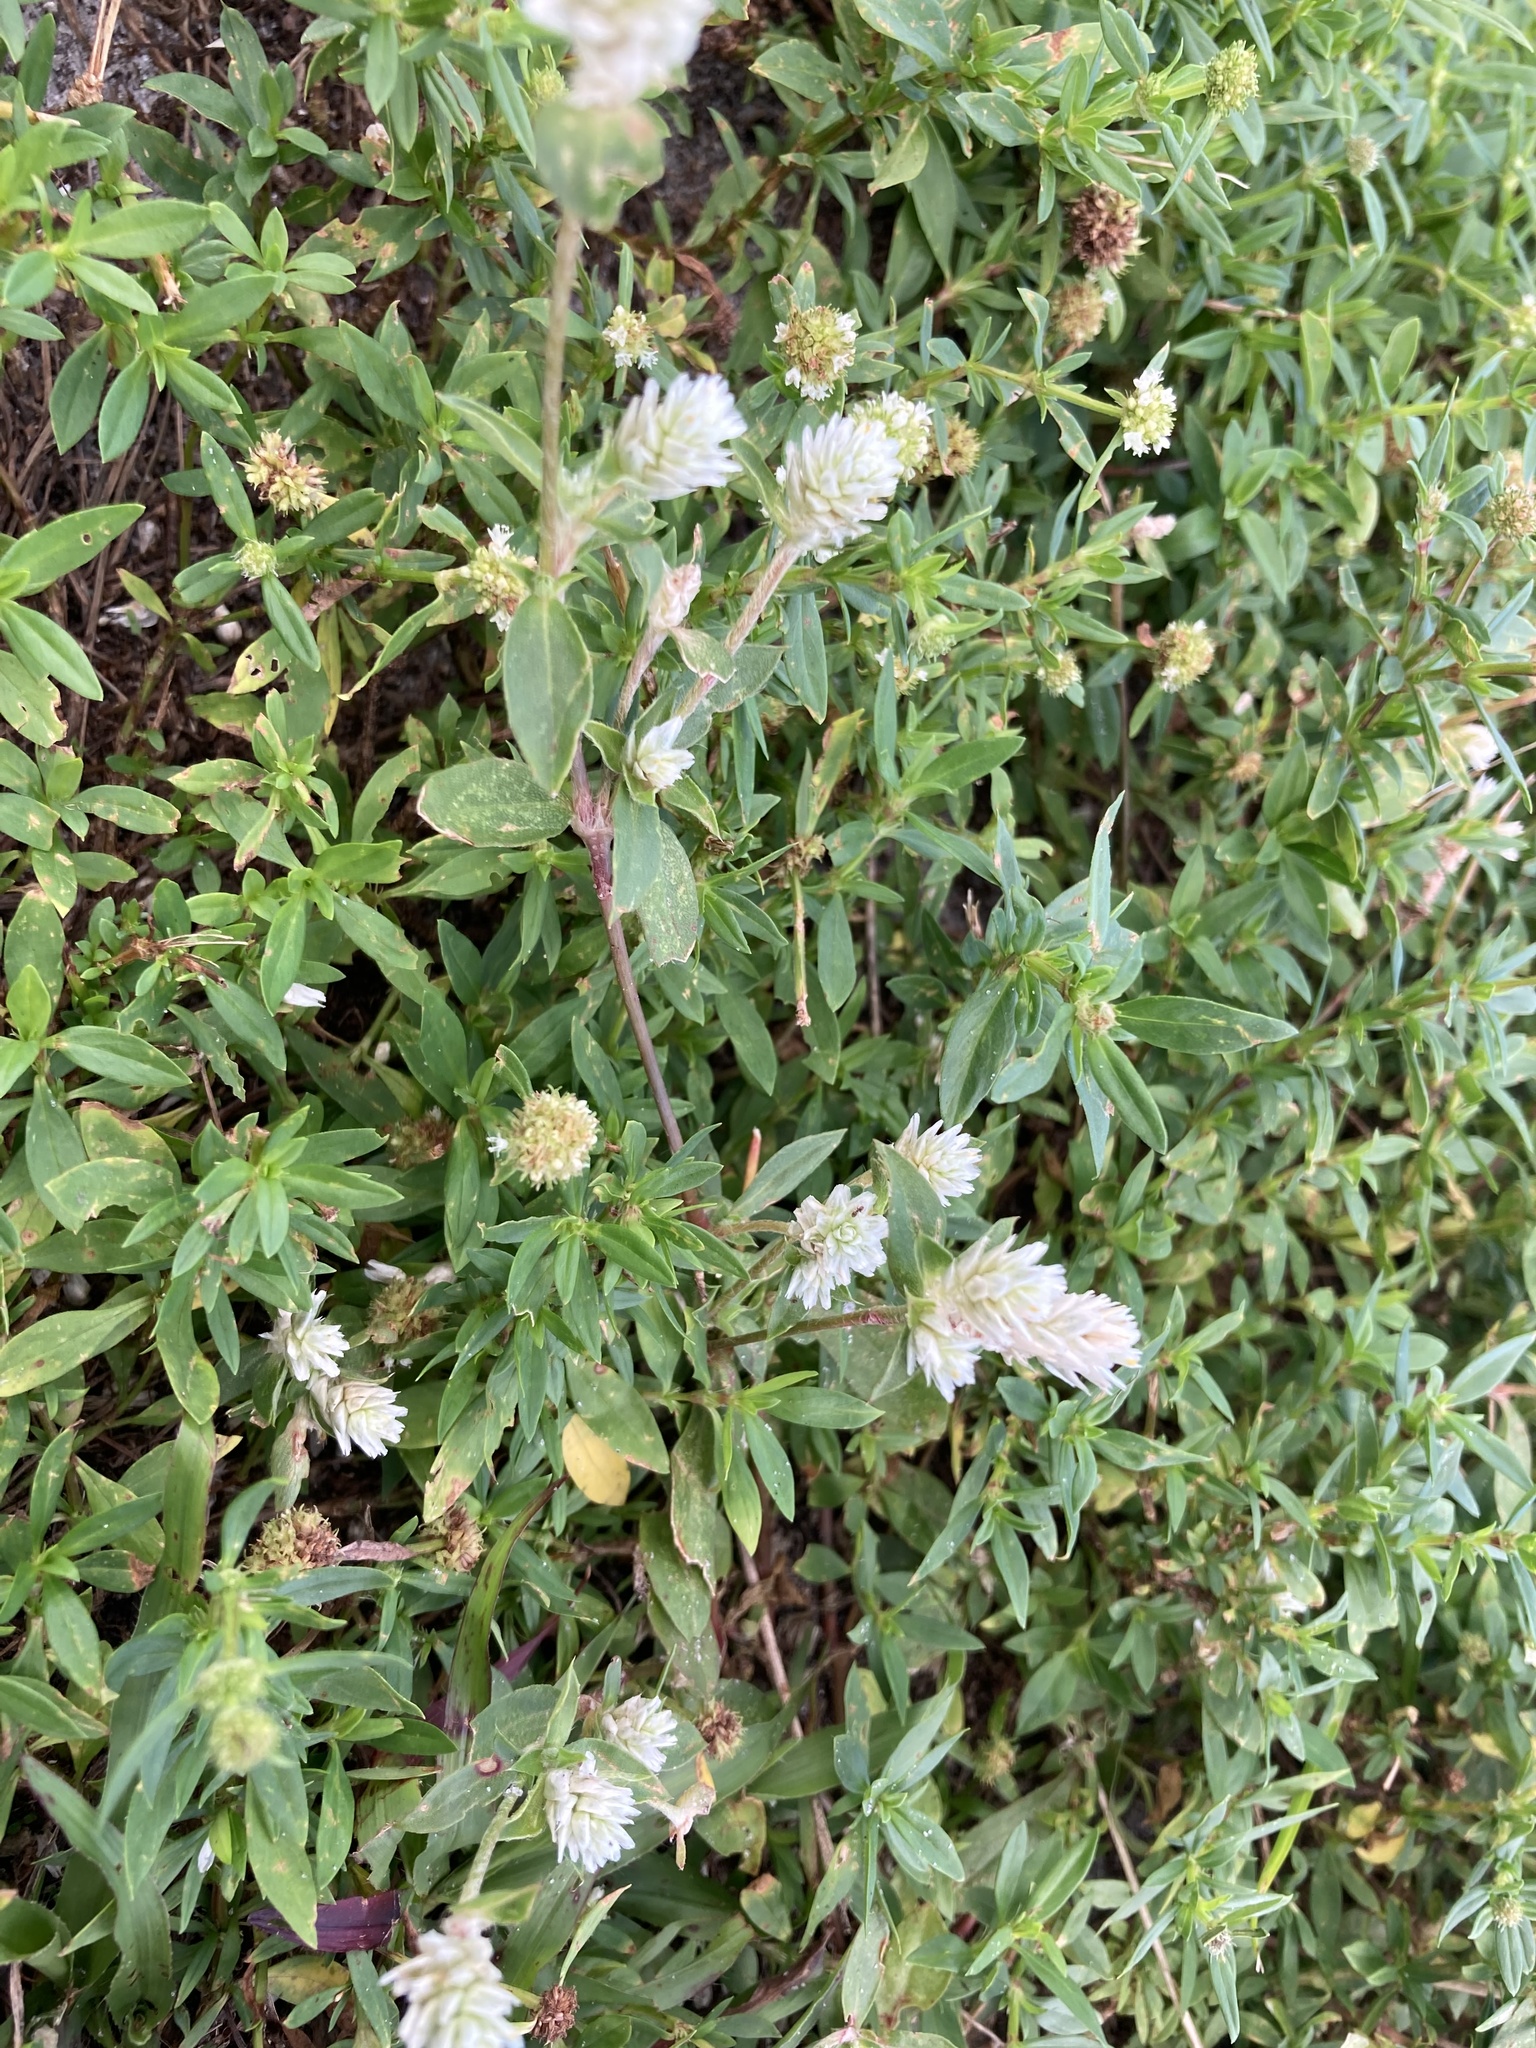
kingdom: Plantae
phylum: Tracheophyta
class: Magnoliopsida
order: Caryophyllales
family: Amaranthaceae
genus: Gomphrena
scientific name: Gomphrena serrata
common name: Arrasa con todo
